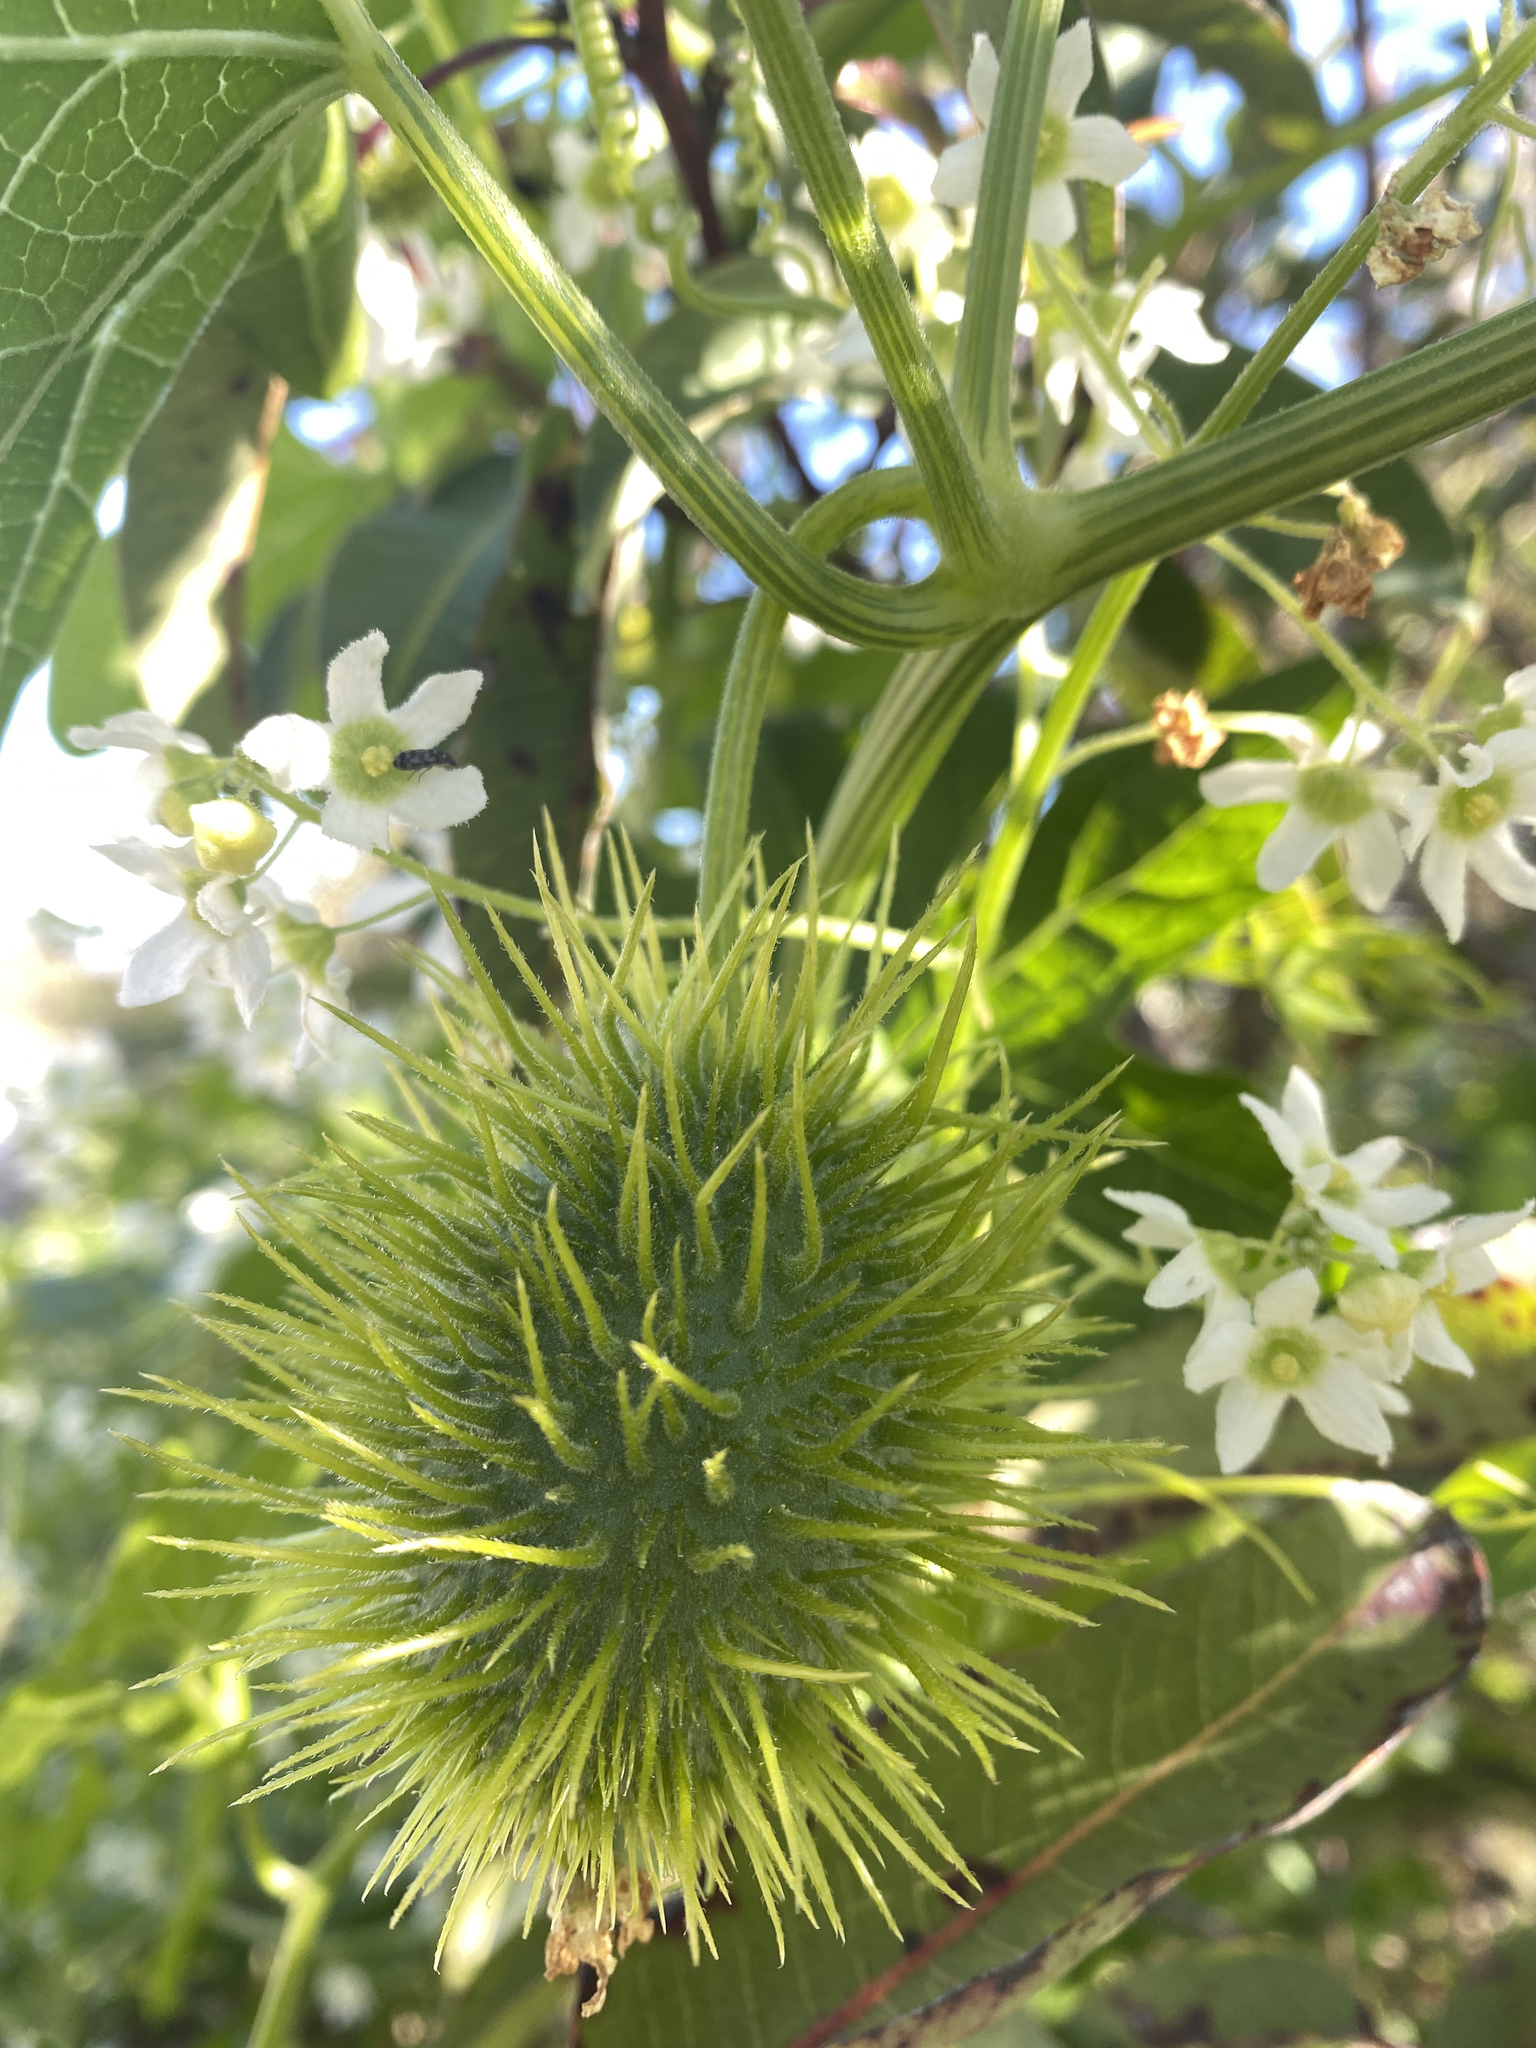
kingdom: Plantae
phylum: Tracheophyta
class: Magnoliopsida
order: Cucurbitales
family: Cucurbitaceae
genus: Marah
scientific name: Marah macrocarpa
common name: Cucamonga manroot
